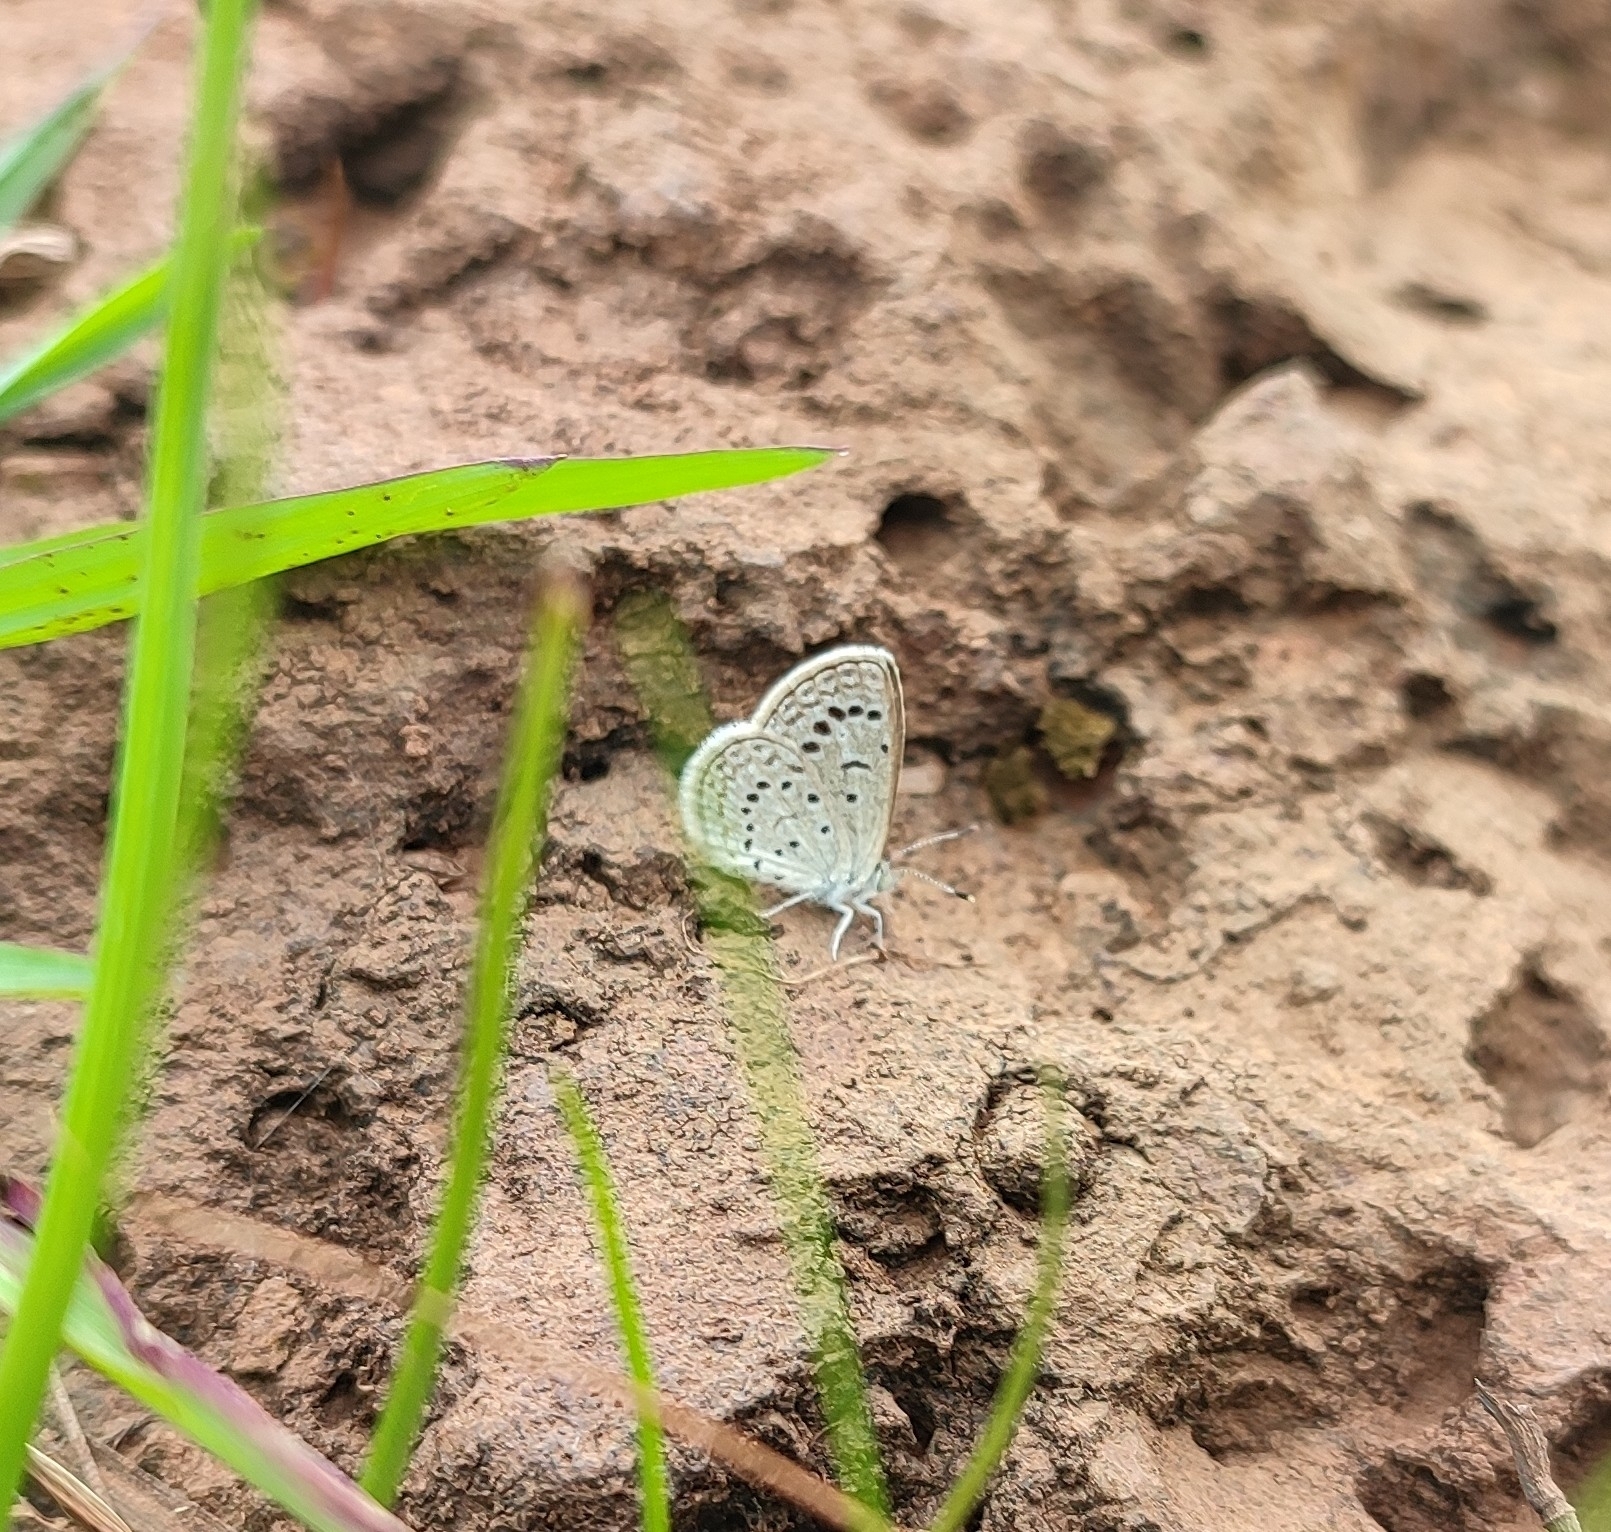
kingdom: Animalia
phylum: Arthropoda
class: Insecta
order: Lepidoptera
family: Lycaenidae
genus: Zizeeria
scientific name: Zizeeria karsandra
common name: Dark grass blue
